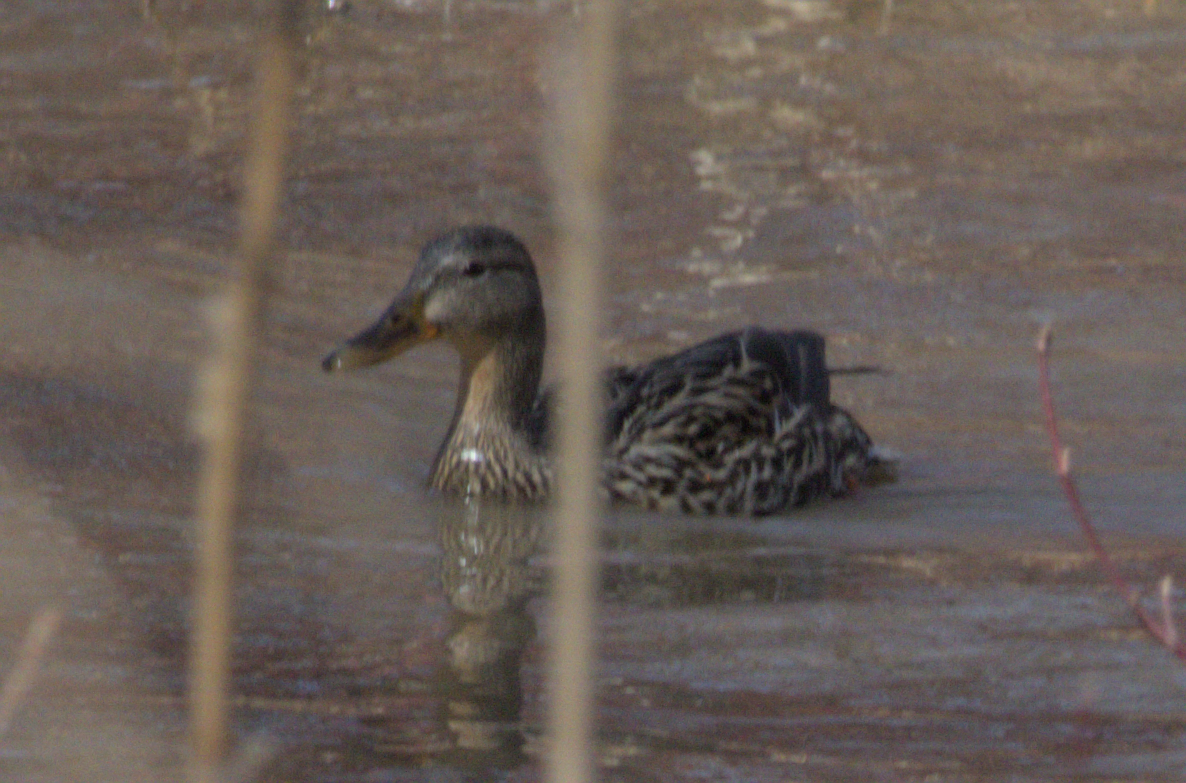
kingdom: Animalia
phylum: Chordata
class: Aves
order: Anseriformes
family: Anatidae
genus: Anas
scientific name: Anas platyrhynchos
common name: Mallard
